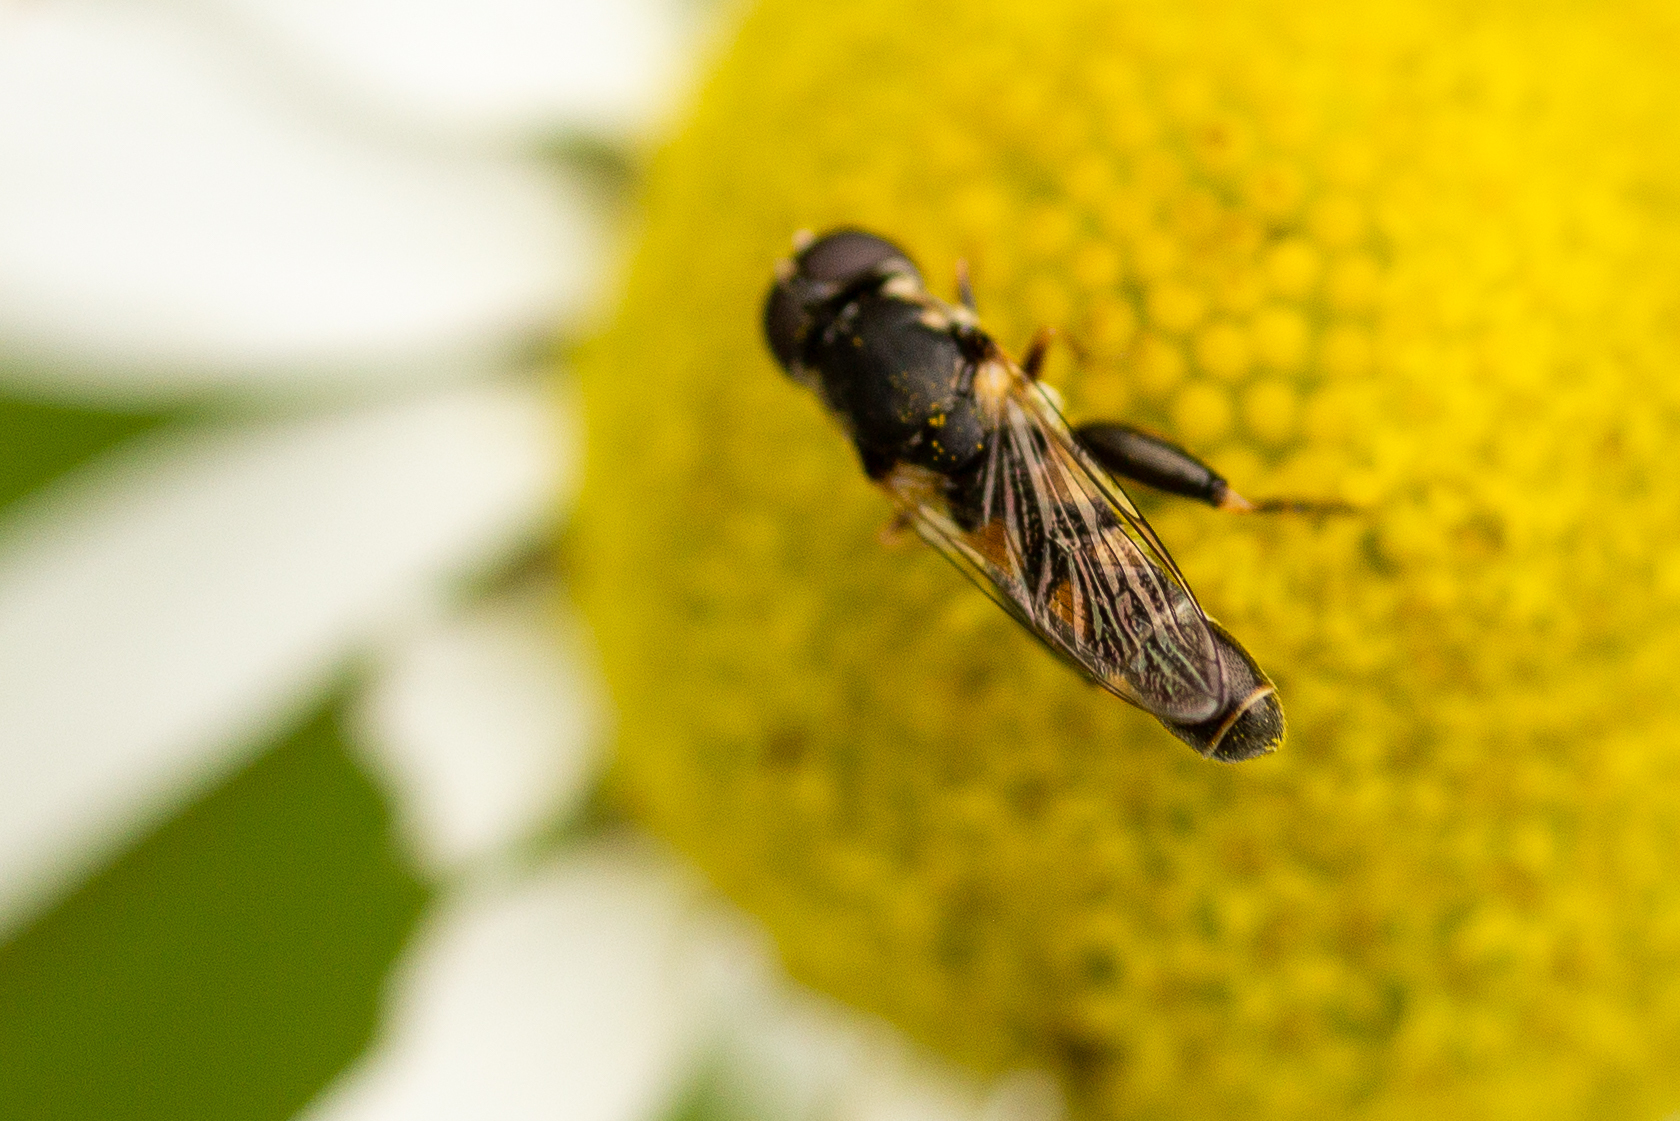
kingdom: Animalia
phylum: Arthropoda
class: Insecta
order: Diptera
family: Syrphidae
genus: Syritta
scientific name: Syritta pipiens
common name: Hover fly
